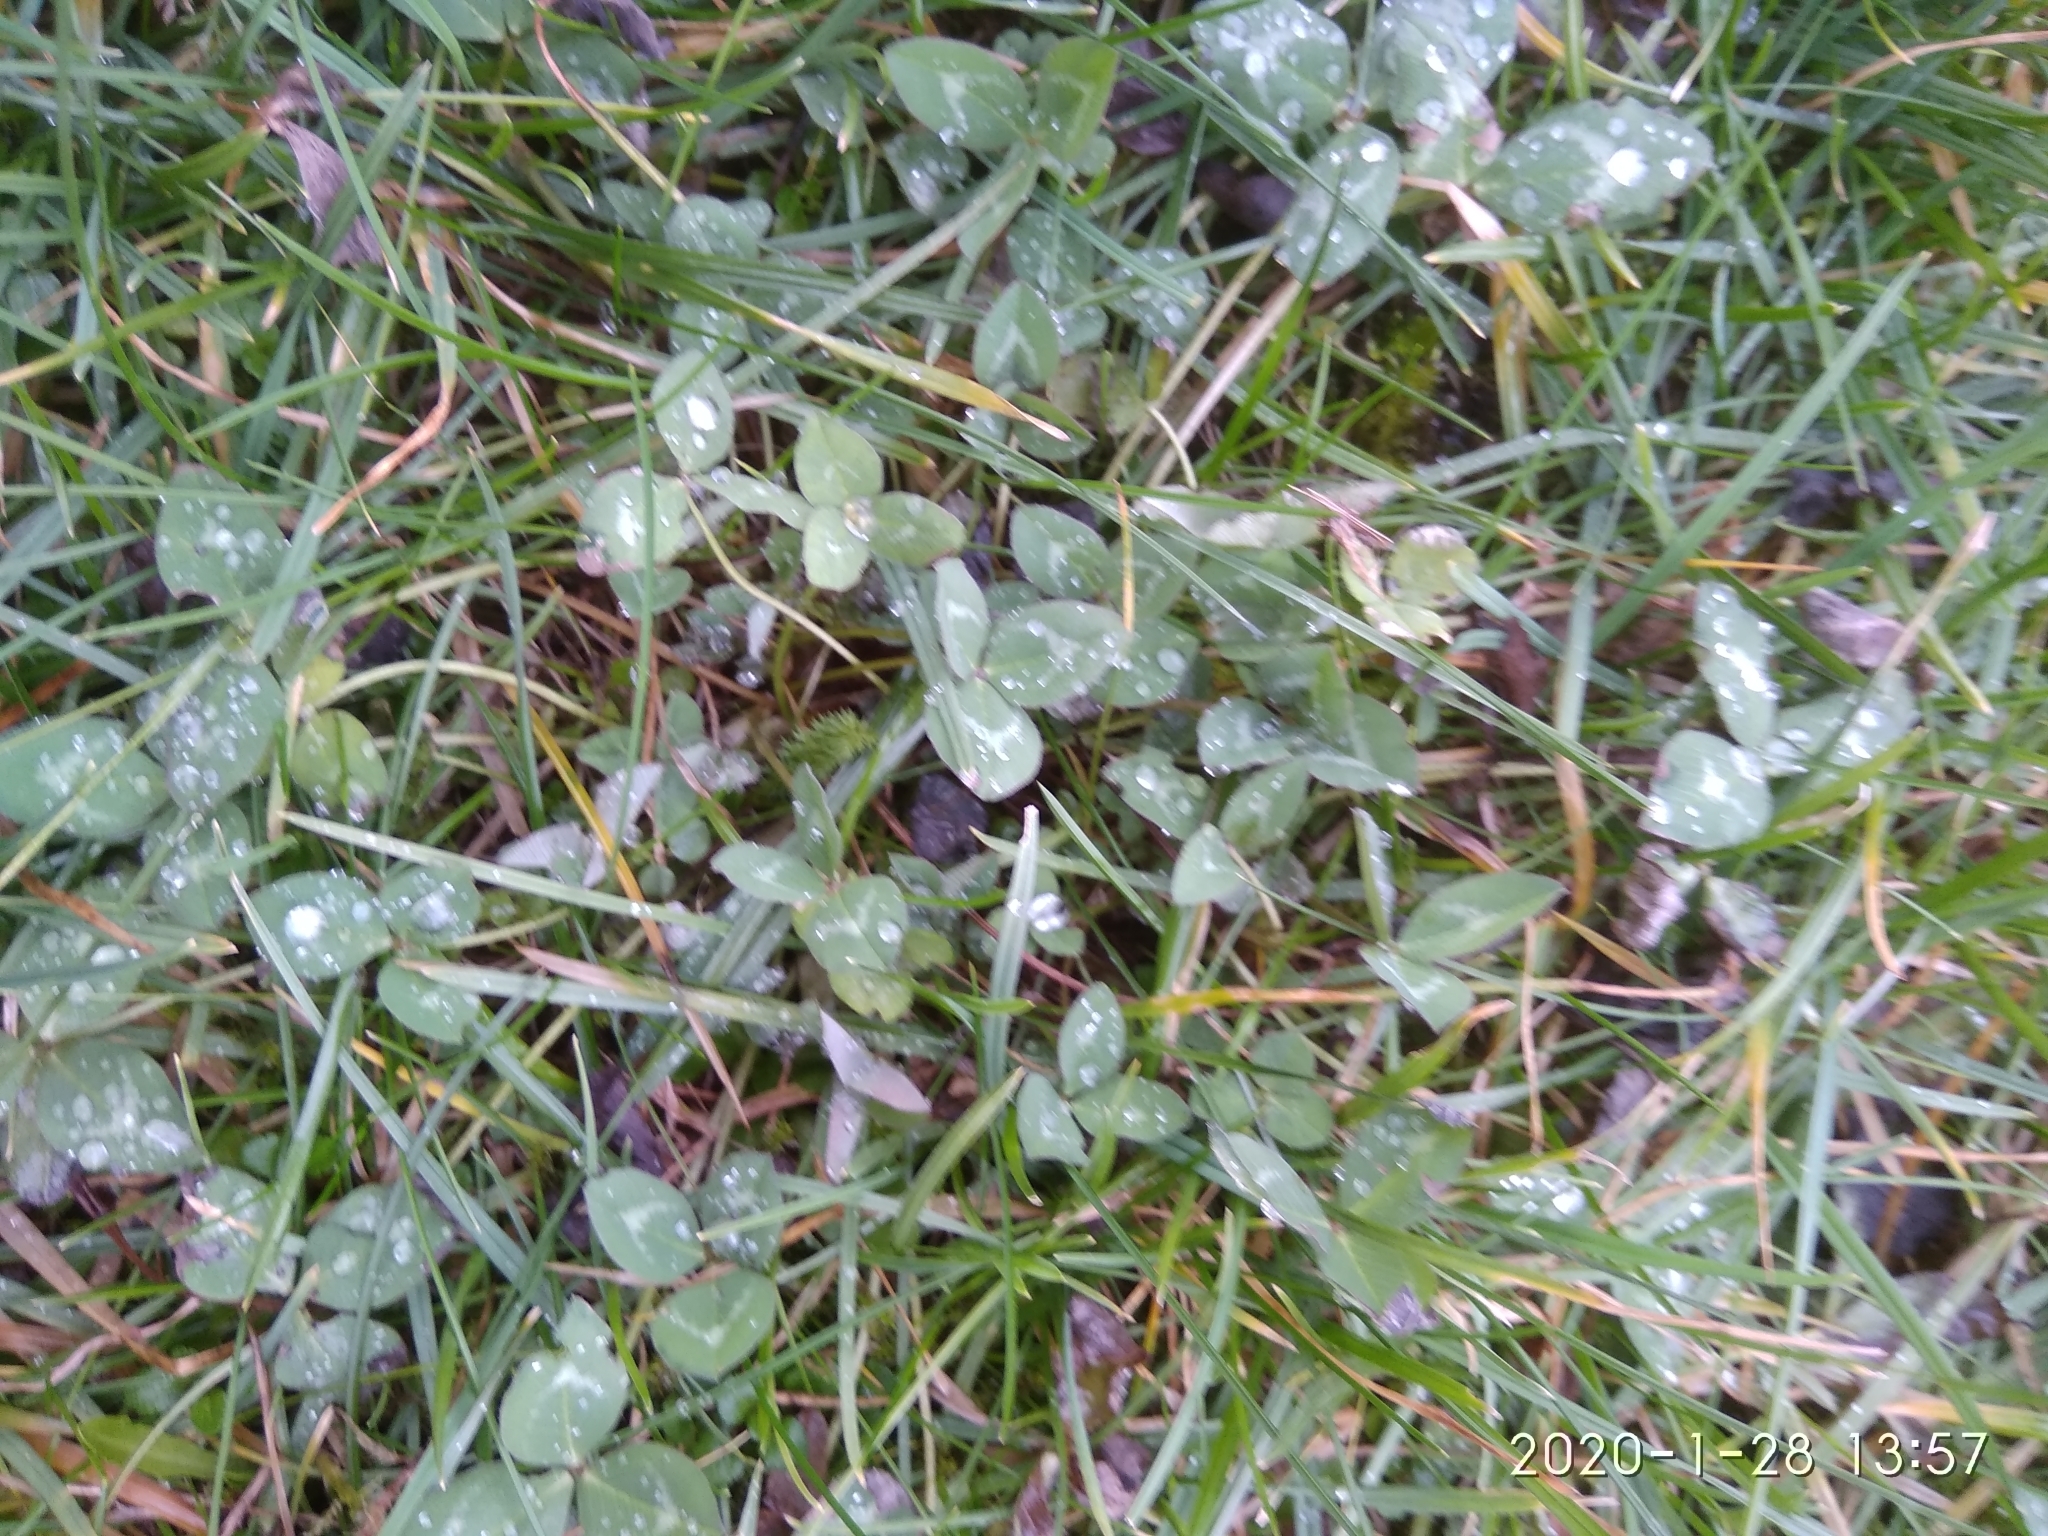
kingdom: Plantae
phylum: Tracheophyta
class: Magnoliopsida
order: Fabales
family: Fabaceae
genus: Trifolium
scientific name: Trifolium repens
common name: White clover
